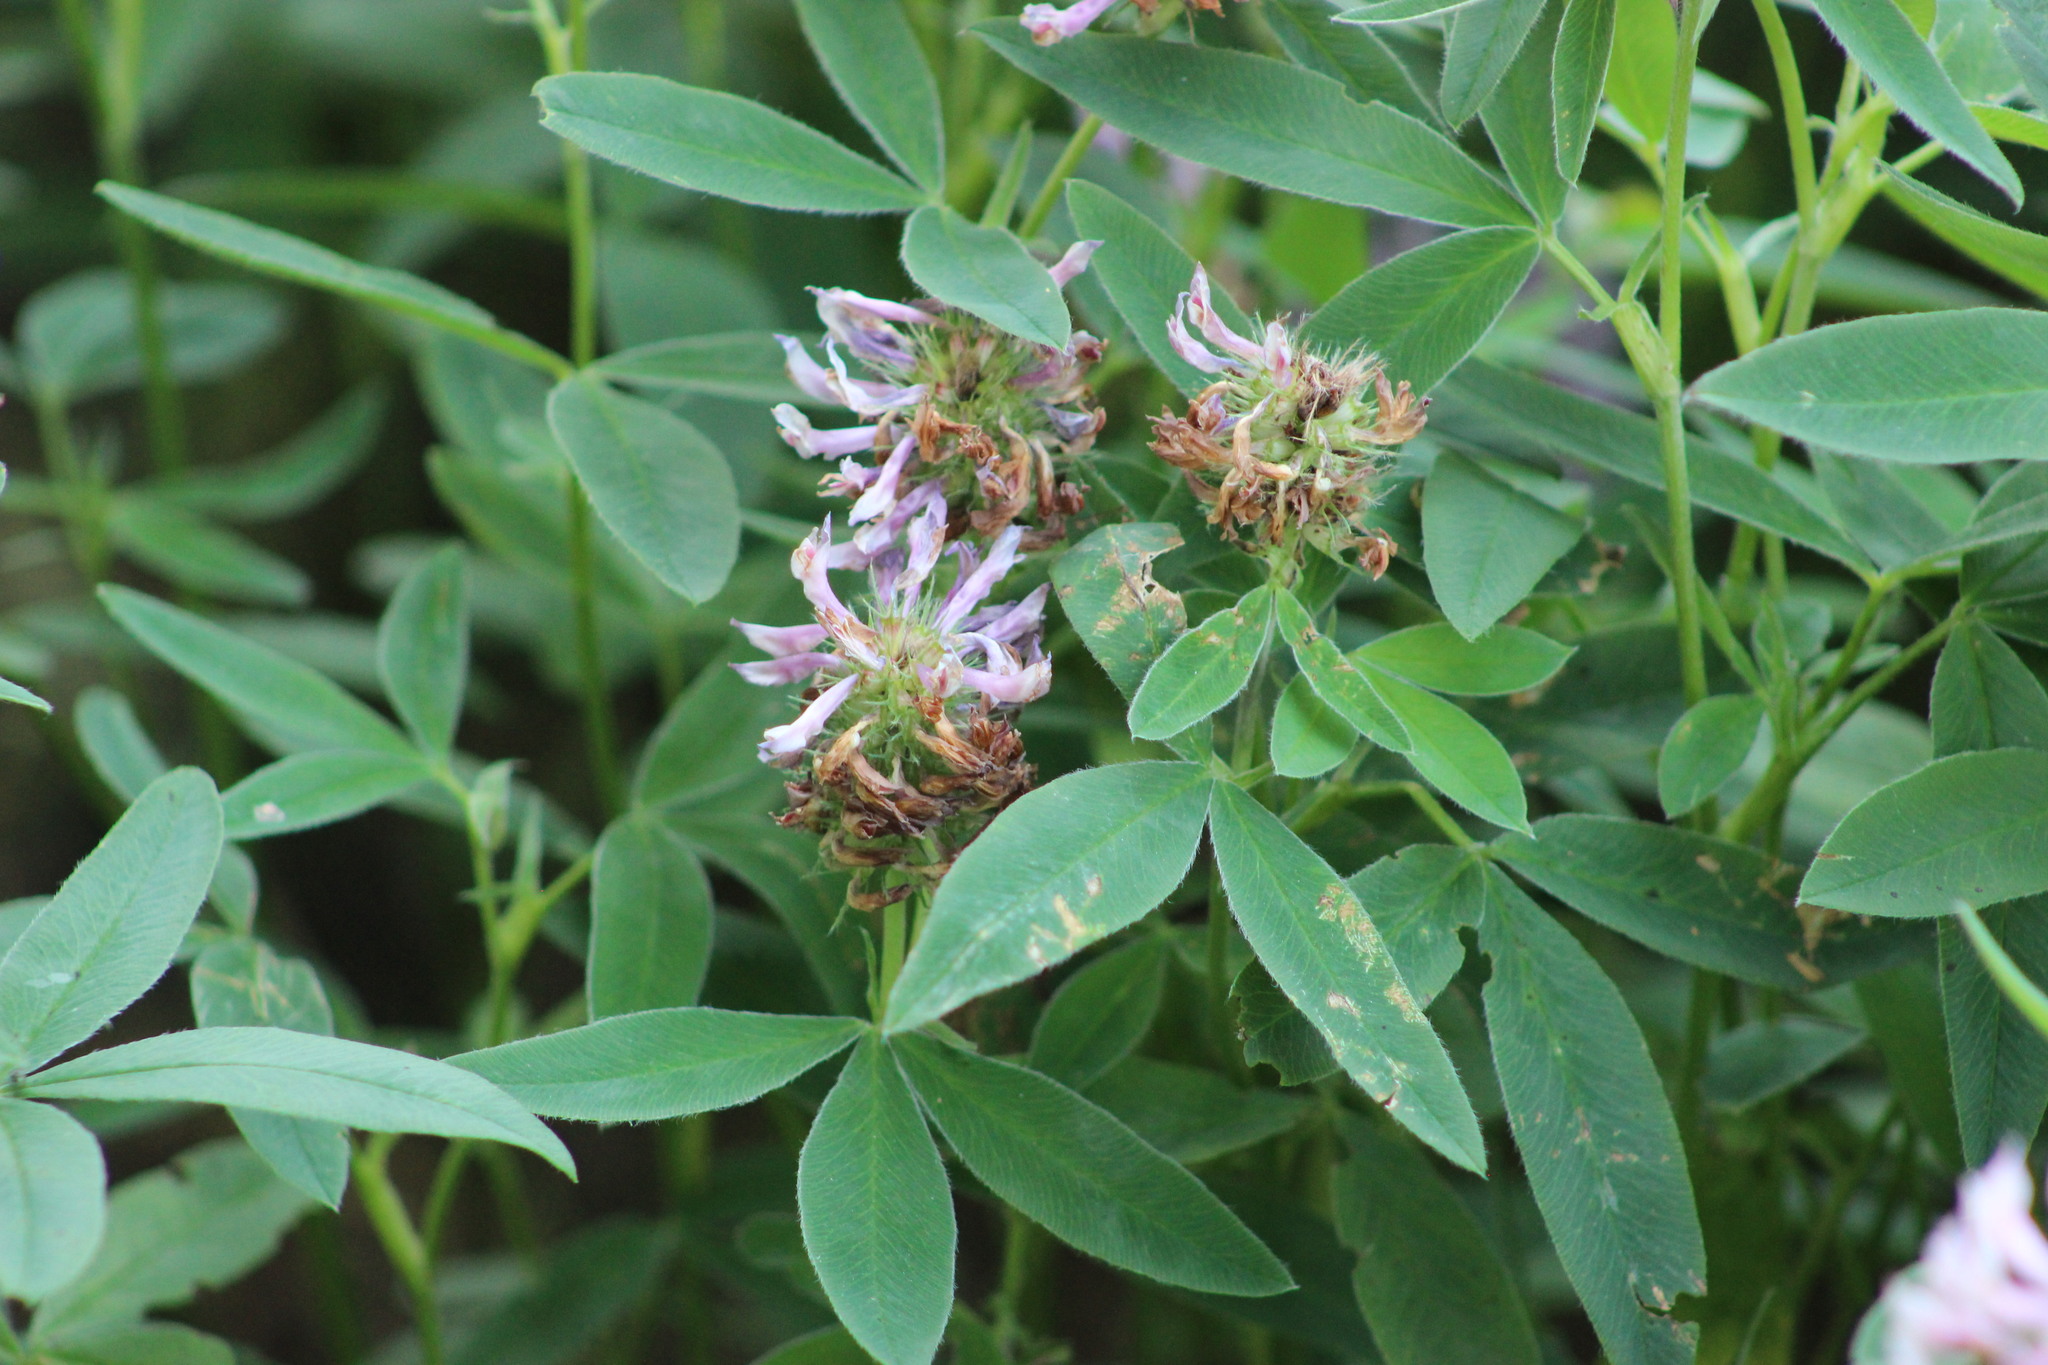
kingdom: Plantae
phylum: Tracheophyta
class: Magnoliopsida
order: Fabales
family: Fabaceae
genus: Trifolium
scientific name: Trifolium medium
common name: Zigzag clover
